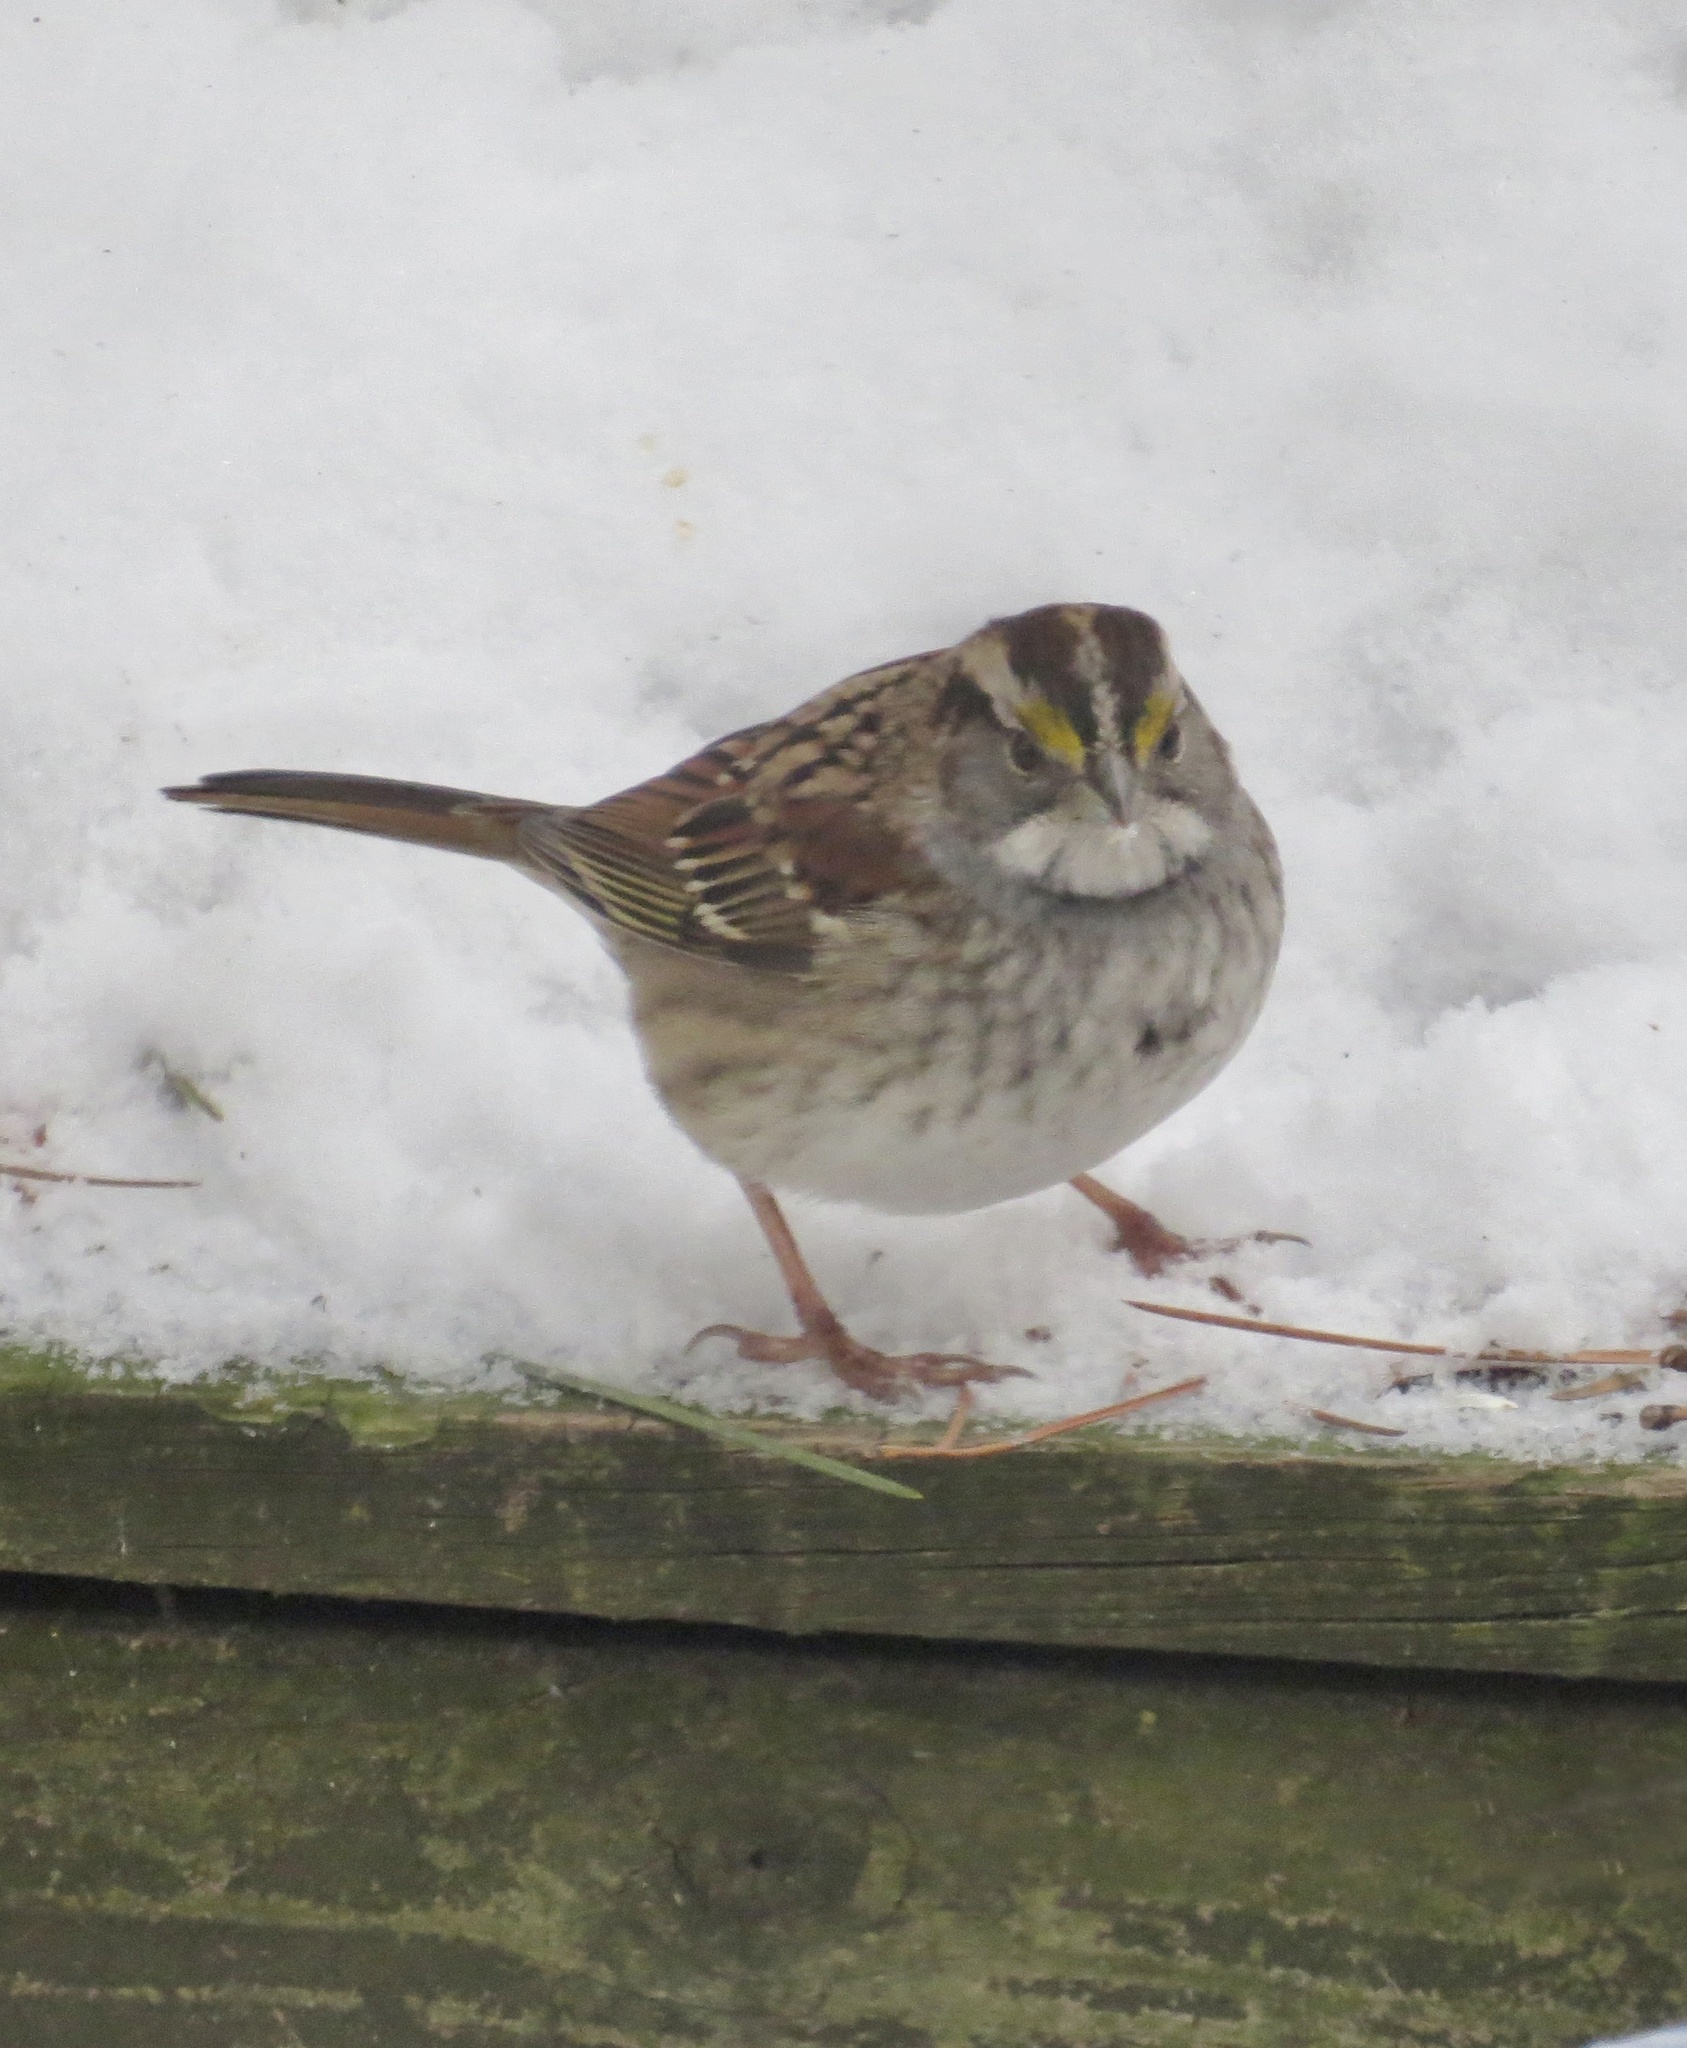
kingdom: Animalia
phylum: Chordata
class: Aves
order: Passeriformes
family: Passerellidae
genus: Zonotrichia
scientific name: Zonotrichia albicollis
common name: White-throated sparrow
